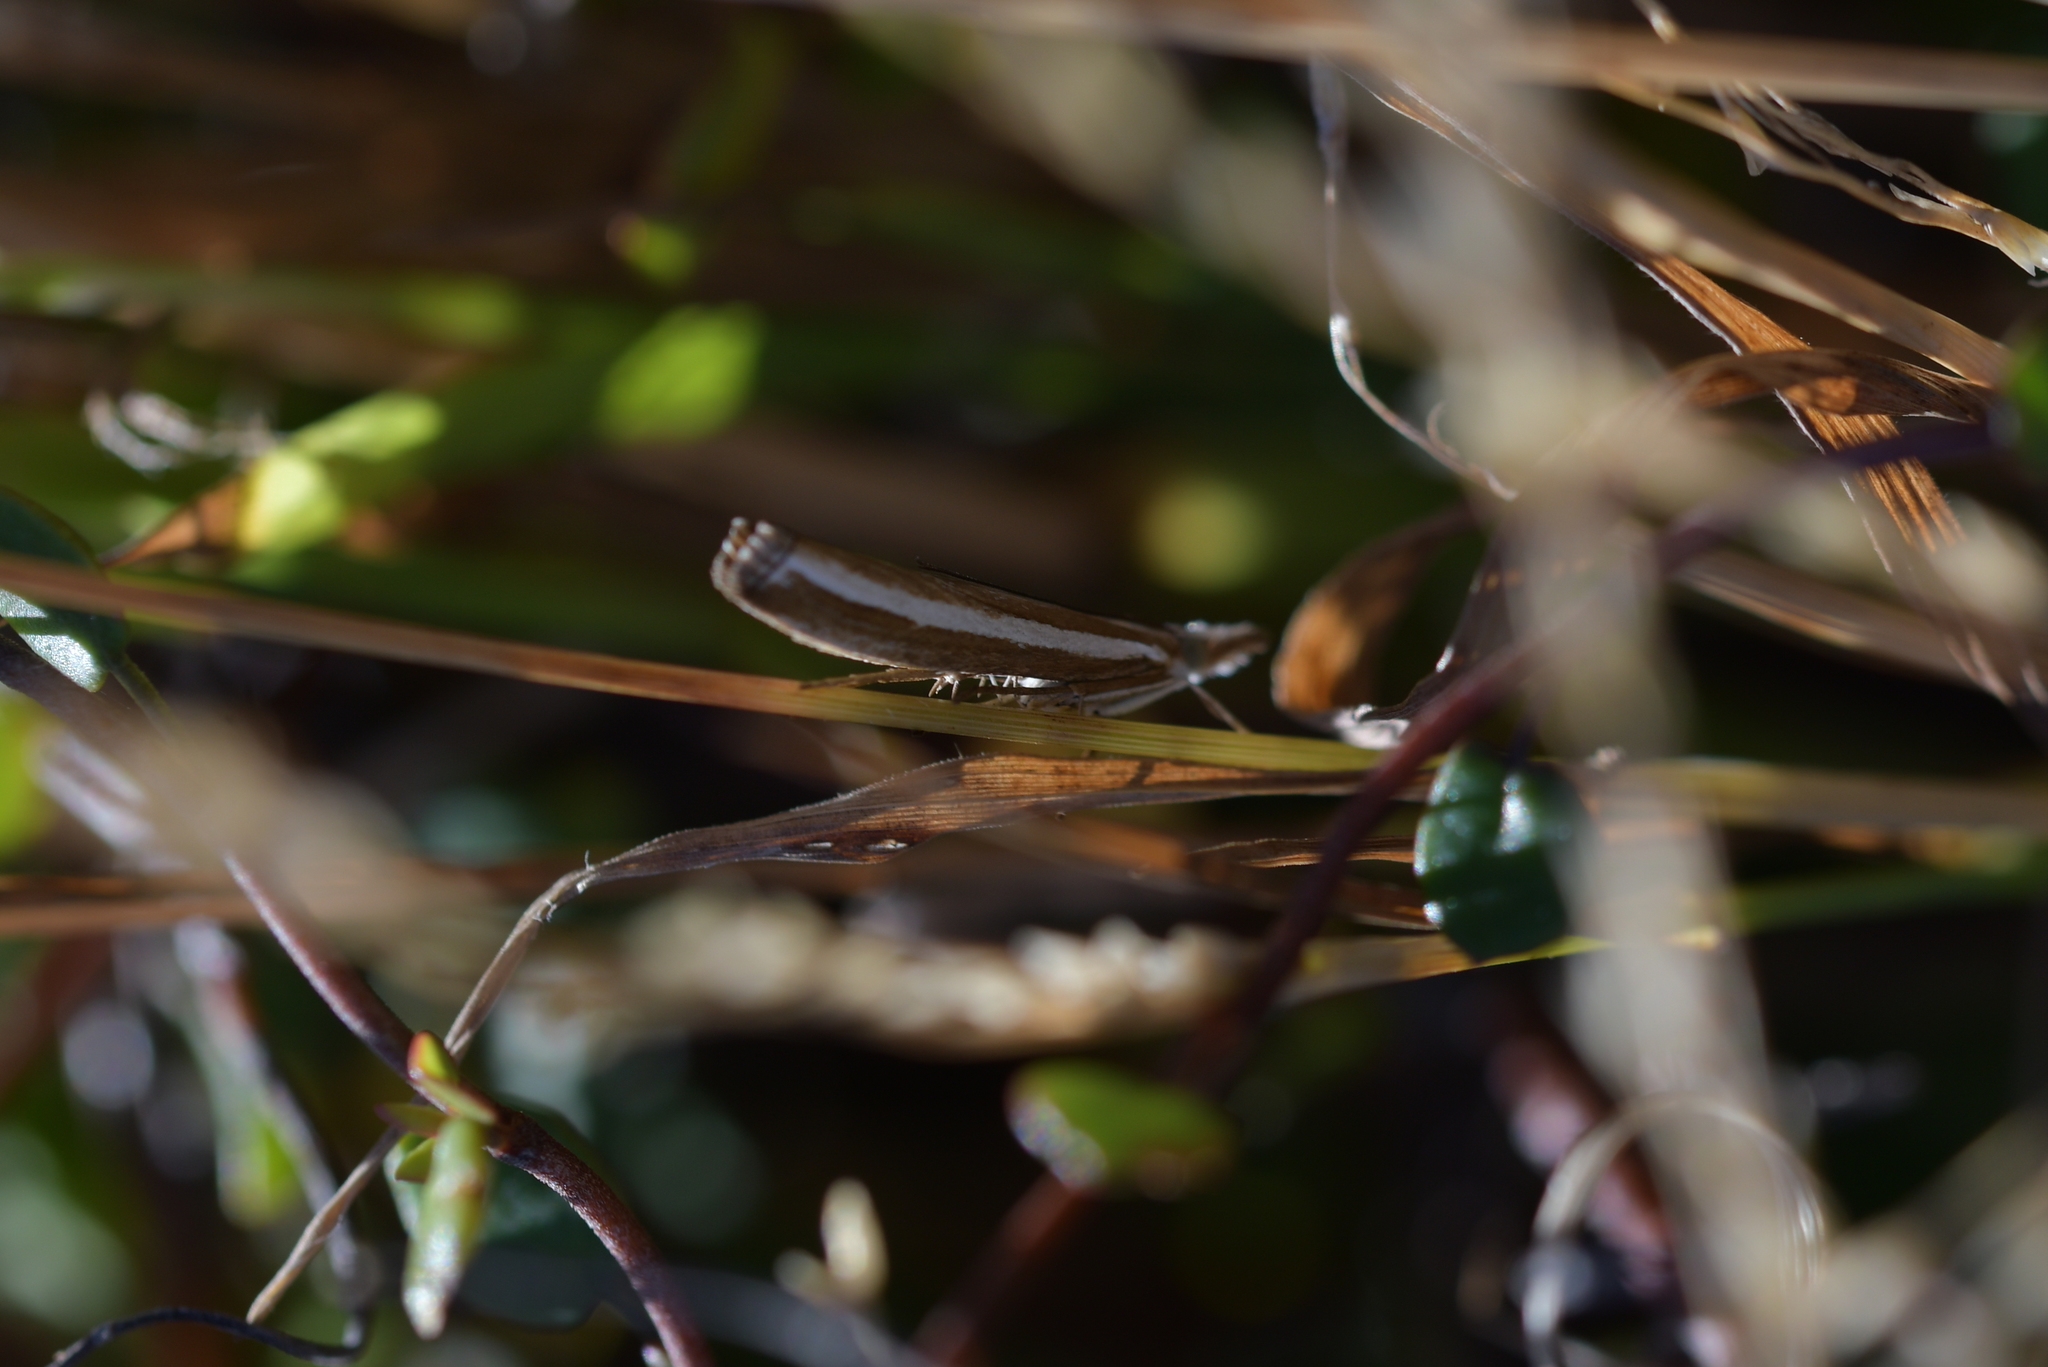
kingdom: Animalia
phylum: Arthropoda
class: Insecta
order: Lepidoptera
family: Crambidae
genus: Orocrambus
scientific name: Orocrambus vittellus
